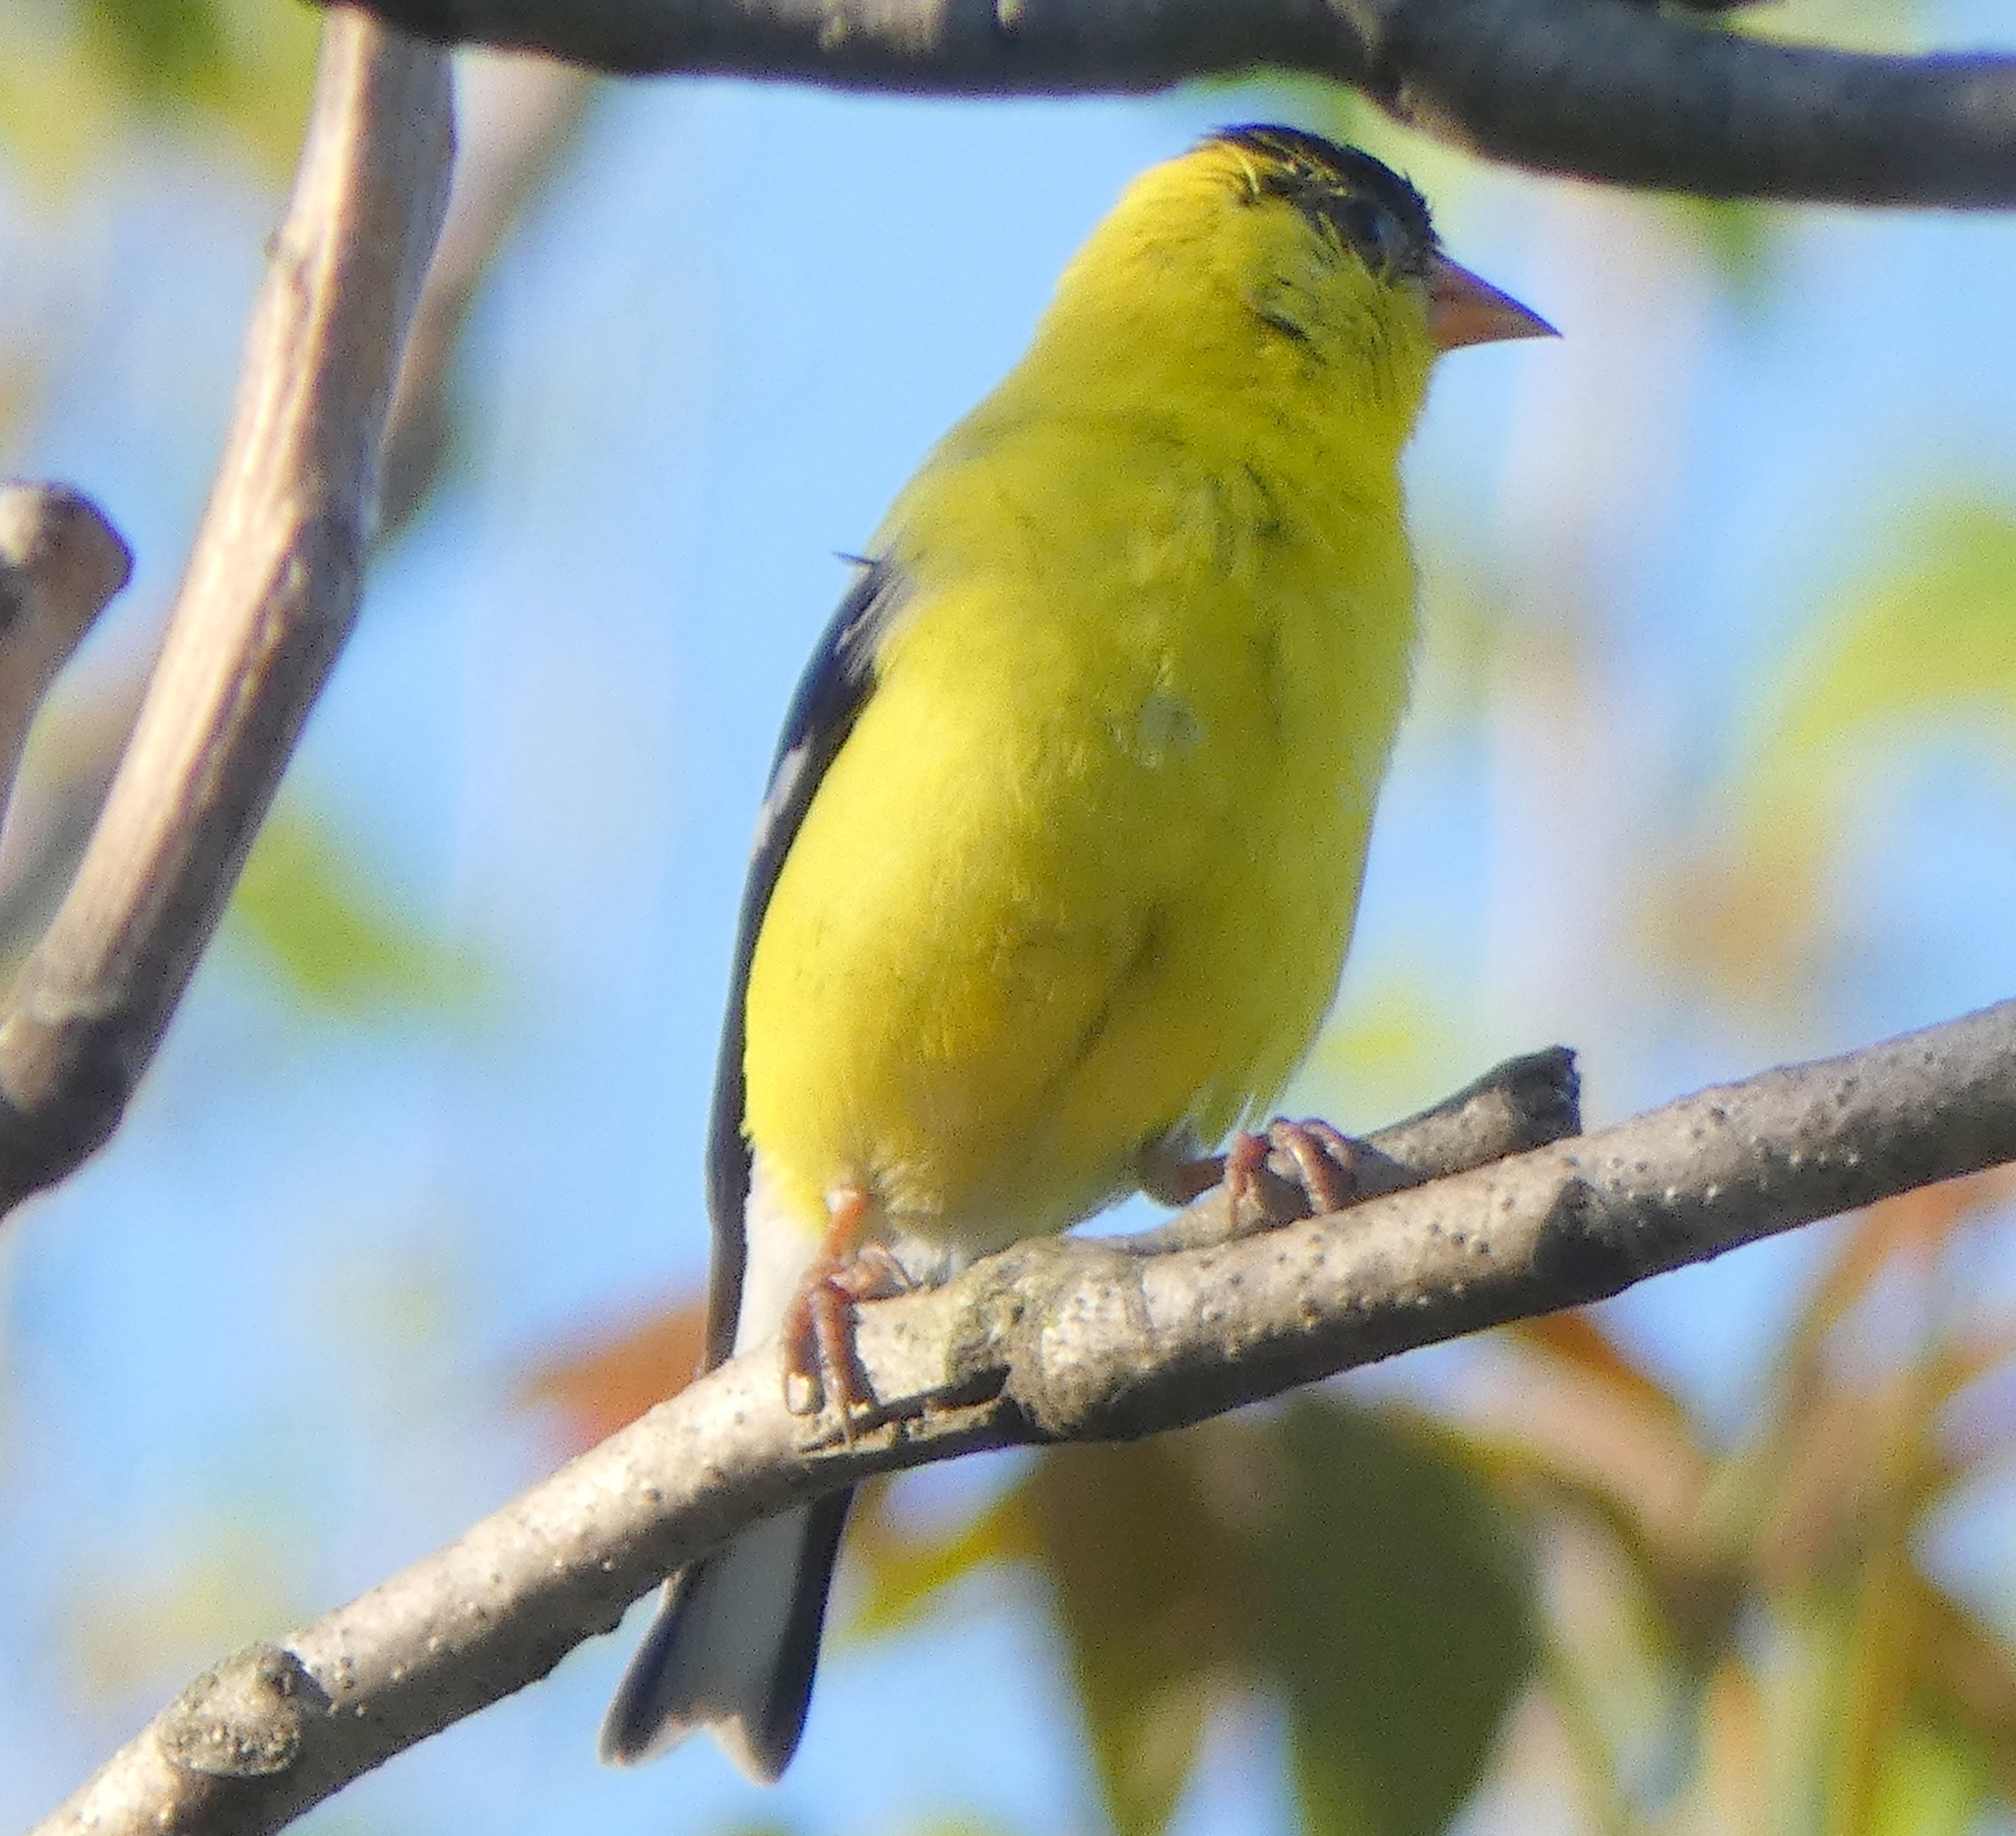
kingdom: Animalia
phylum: Chordata
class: Aves
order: Passeriformes
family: Fringillidae
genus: Spinus
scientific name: Spinus tristis
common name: American goldfinch
